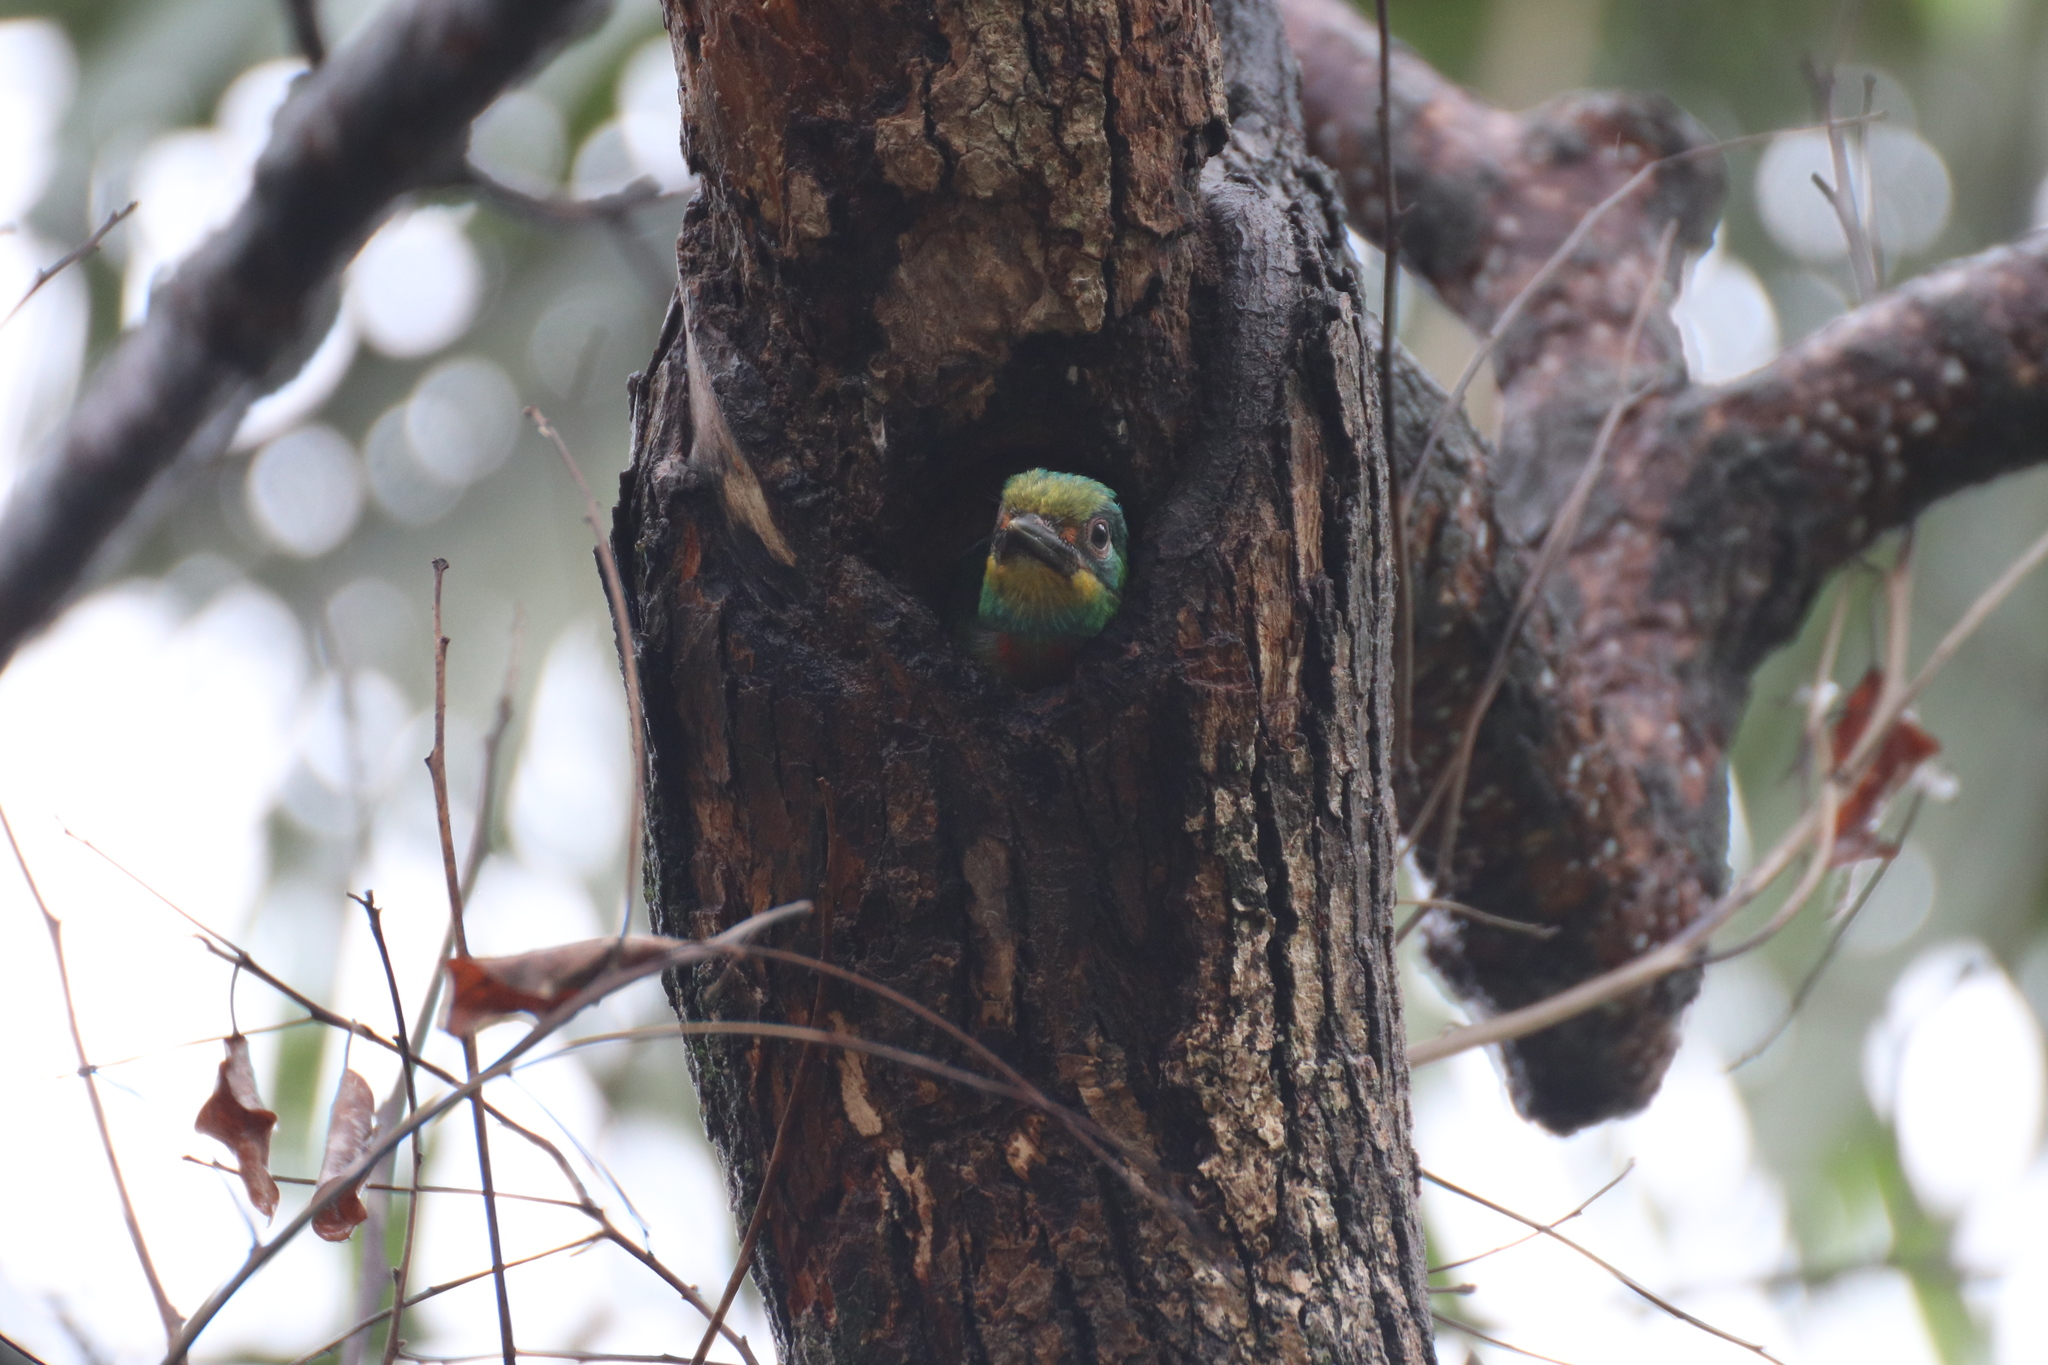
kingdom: Animalia
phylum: Chordata
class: Aves
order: Piciformes
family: Megalaimidae
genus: Psilopogon
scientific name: Psilopogon nuchalis
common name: Taiwan barbet
